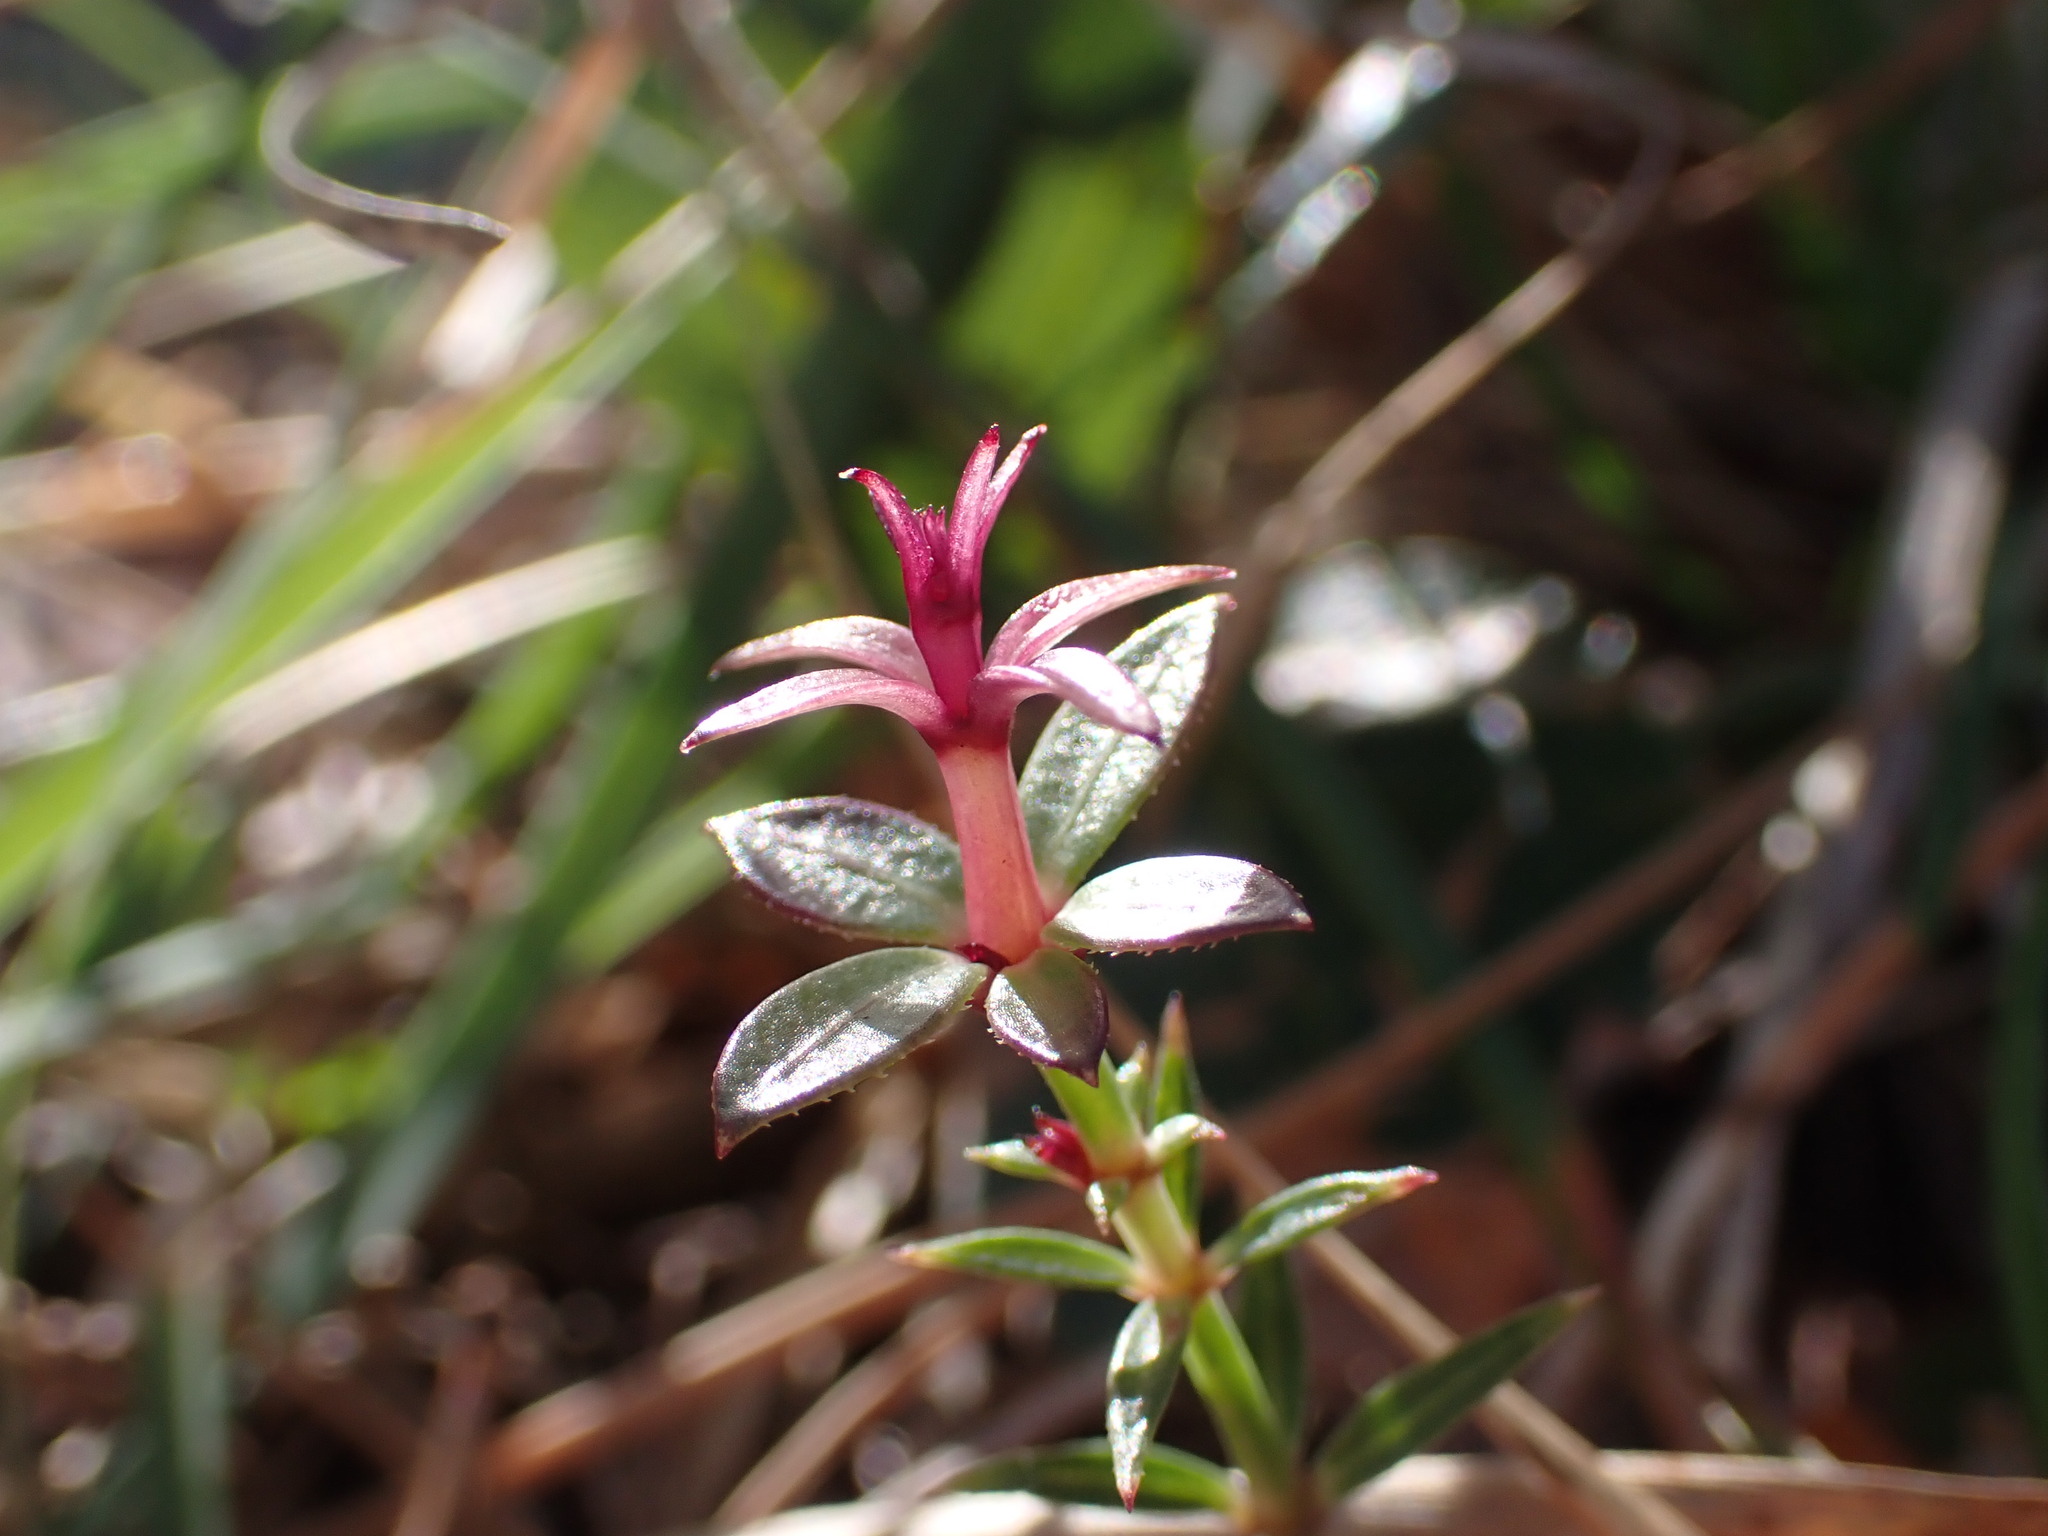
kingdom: Plantae
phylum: Tracheophyta
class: Magnoliopsida
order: Gentianales
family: Rubiaceae
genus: Rubia
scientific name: Rubia peregrina
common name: Wild madder
